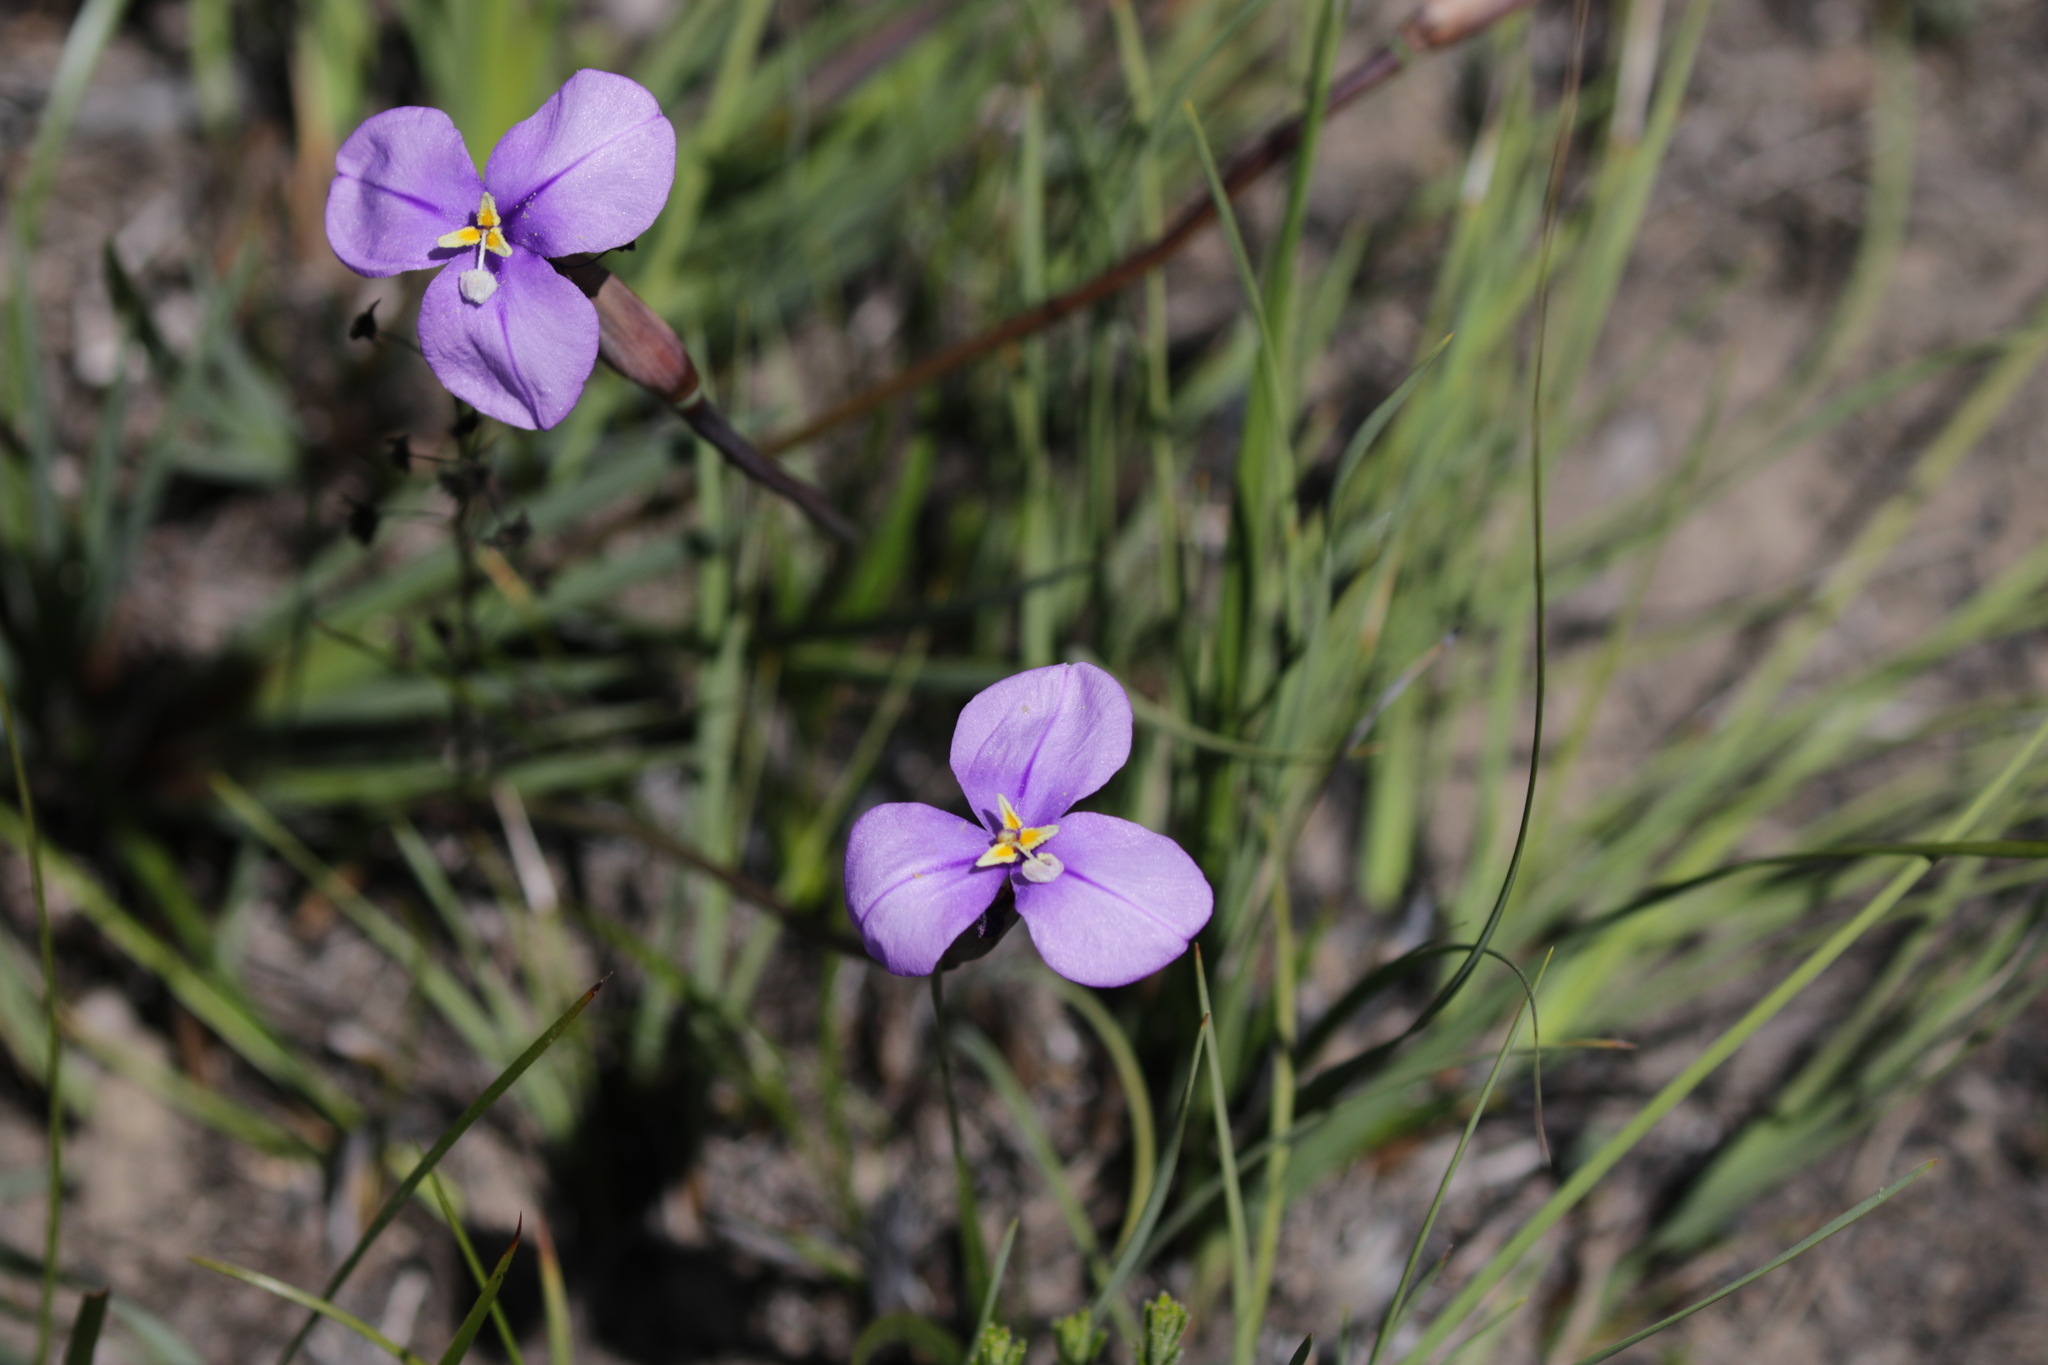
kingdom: Plantae
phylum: Tracheophyta
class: Liliopsida
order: Asparagales
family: Iridaceae
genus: Patersonia
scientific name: Patersonia occidentalis
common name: Long purple-flag
